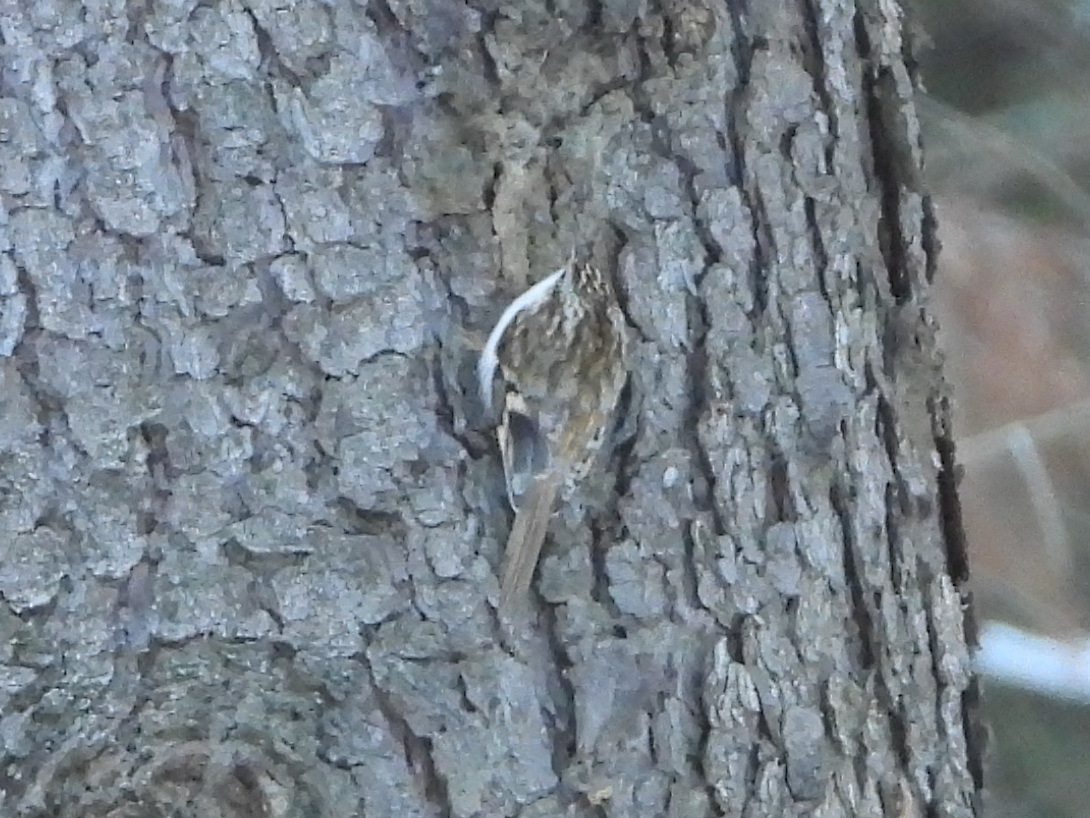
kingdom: Animalia
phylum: Chordata
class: Aves
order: Passeriformes
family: Certhiidae
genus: Certhia
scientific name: Certhia familiaris
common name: Eurasian treecreeper
